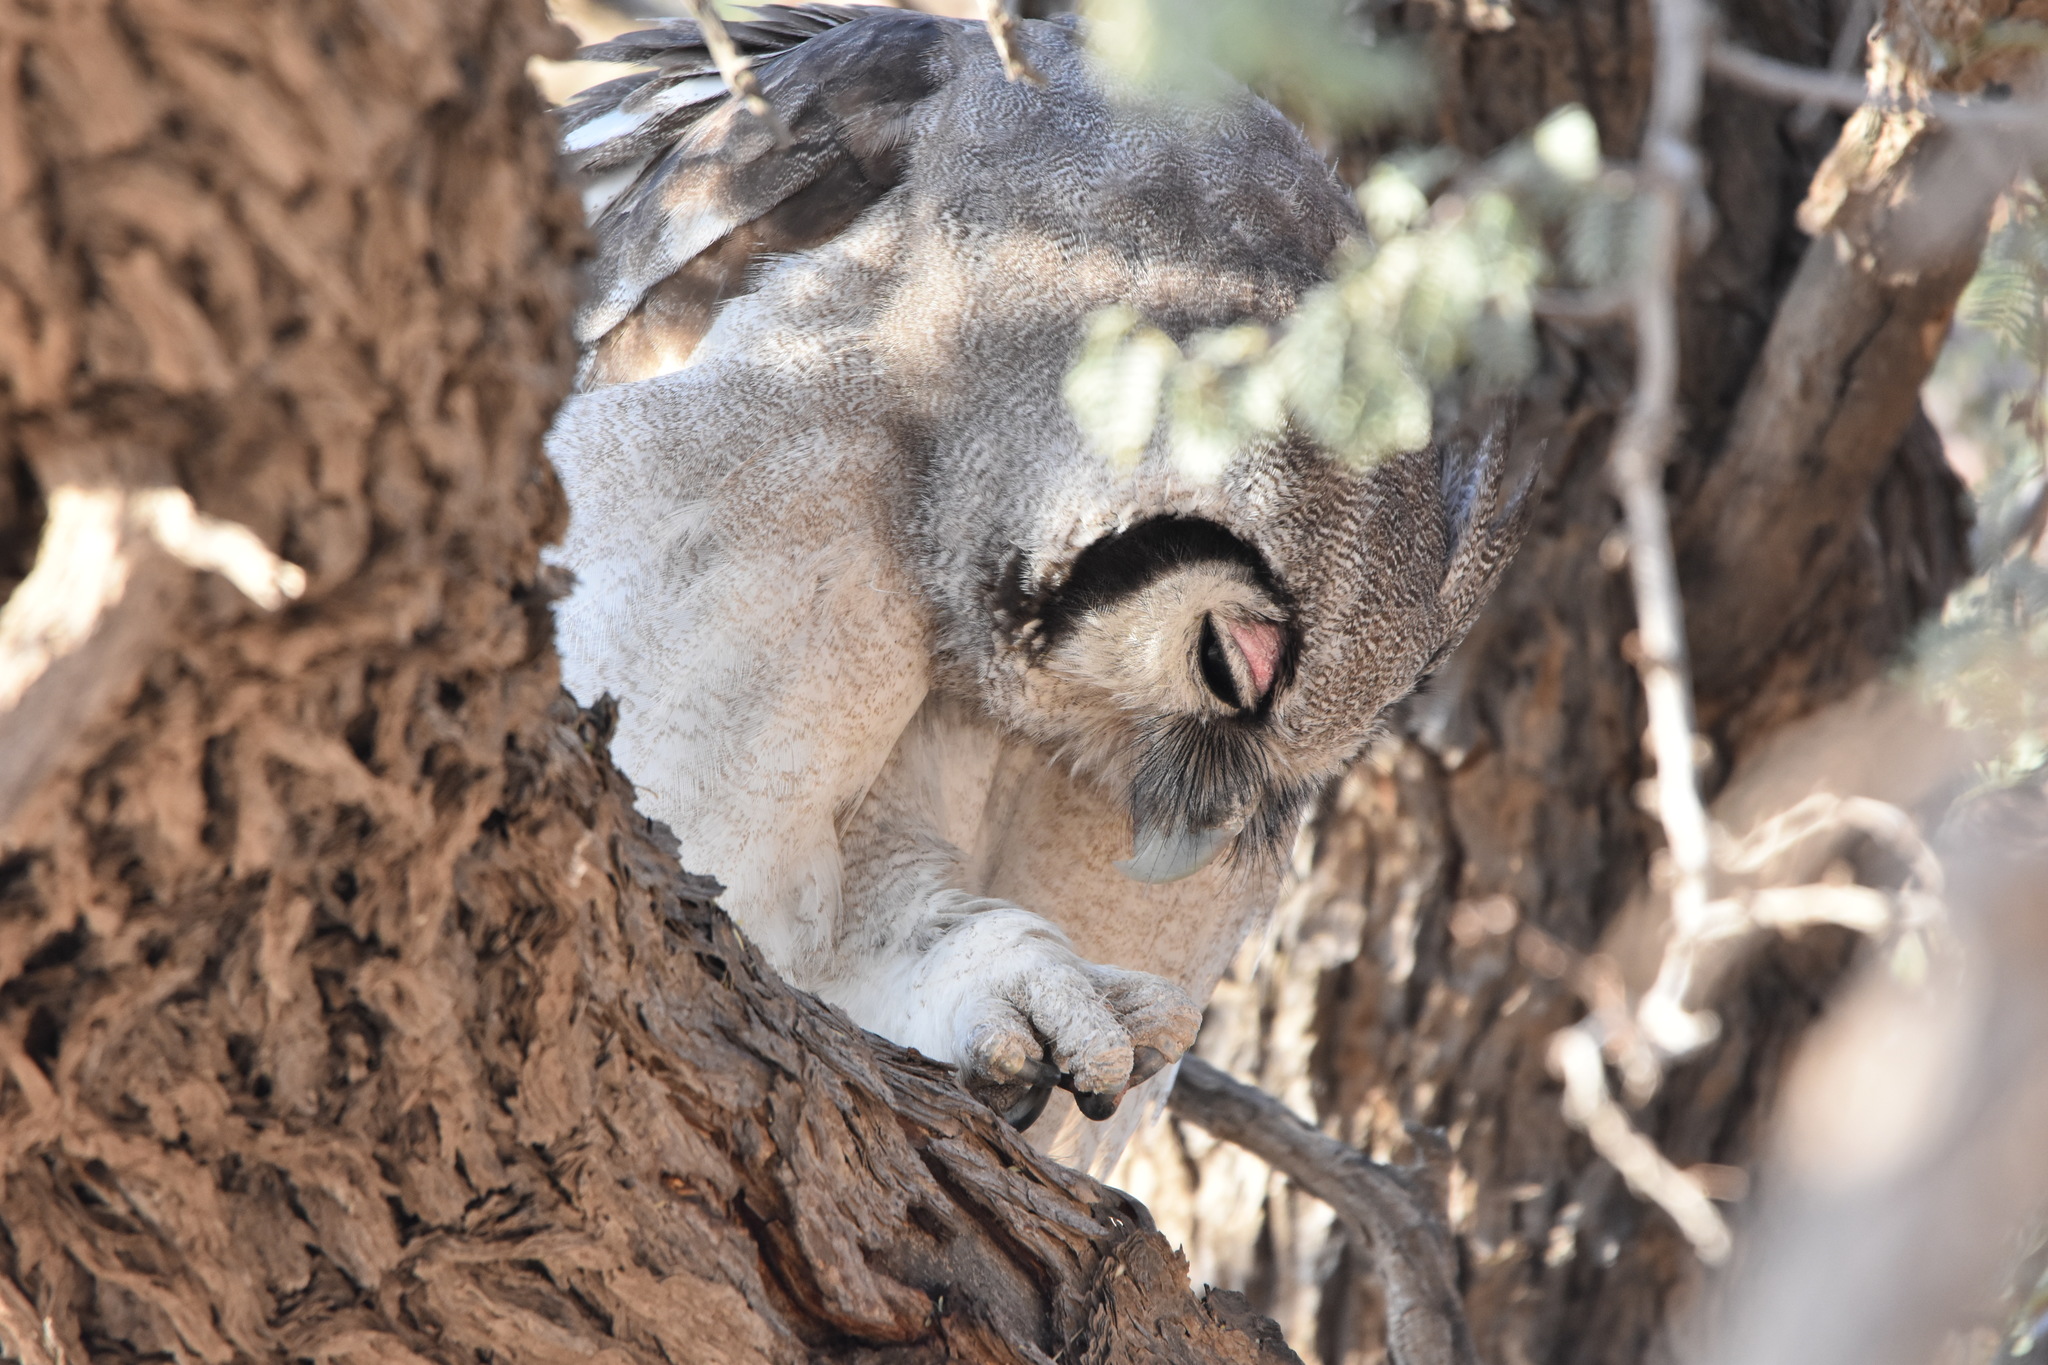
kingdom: Animalia
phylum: Chordata
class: Aves
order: Strigiformes
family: Strigidae
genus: Bubo
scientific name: Bubo lacteus
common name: Verreaux's eagle-owl
